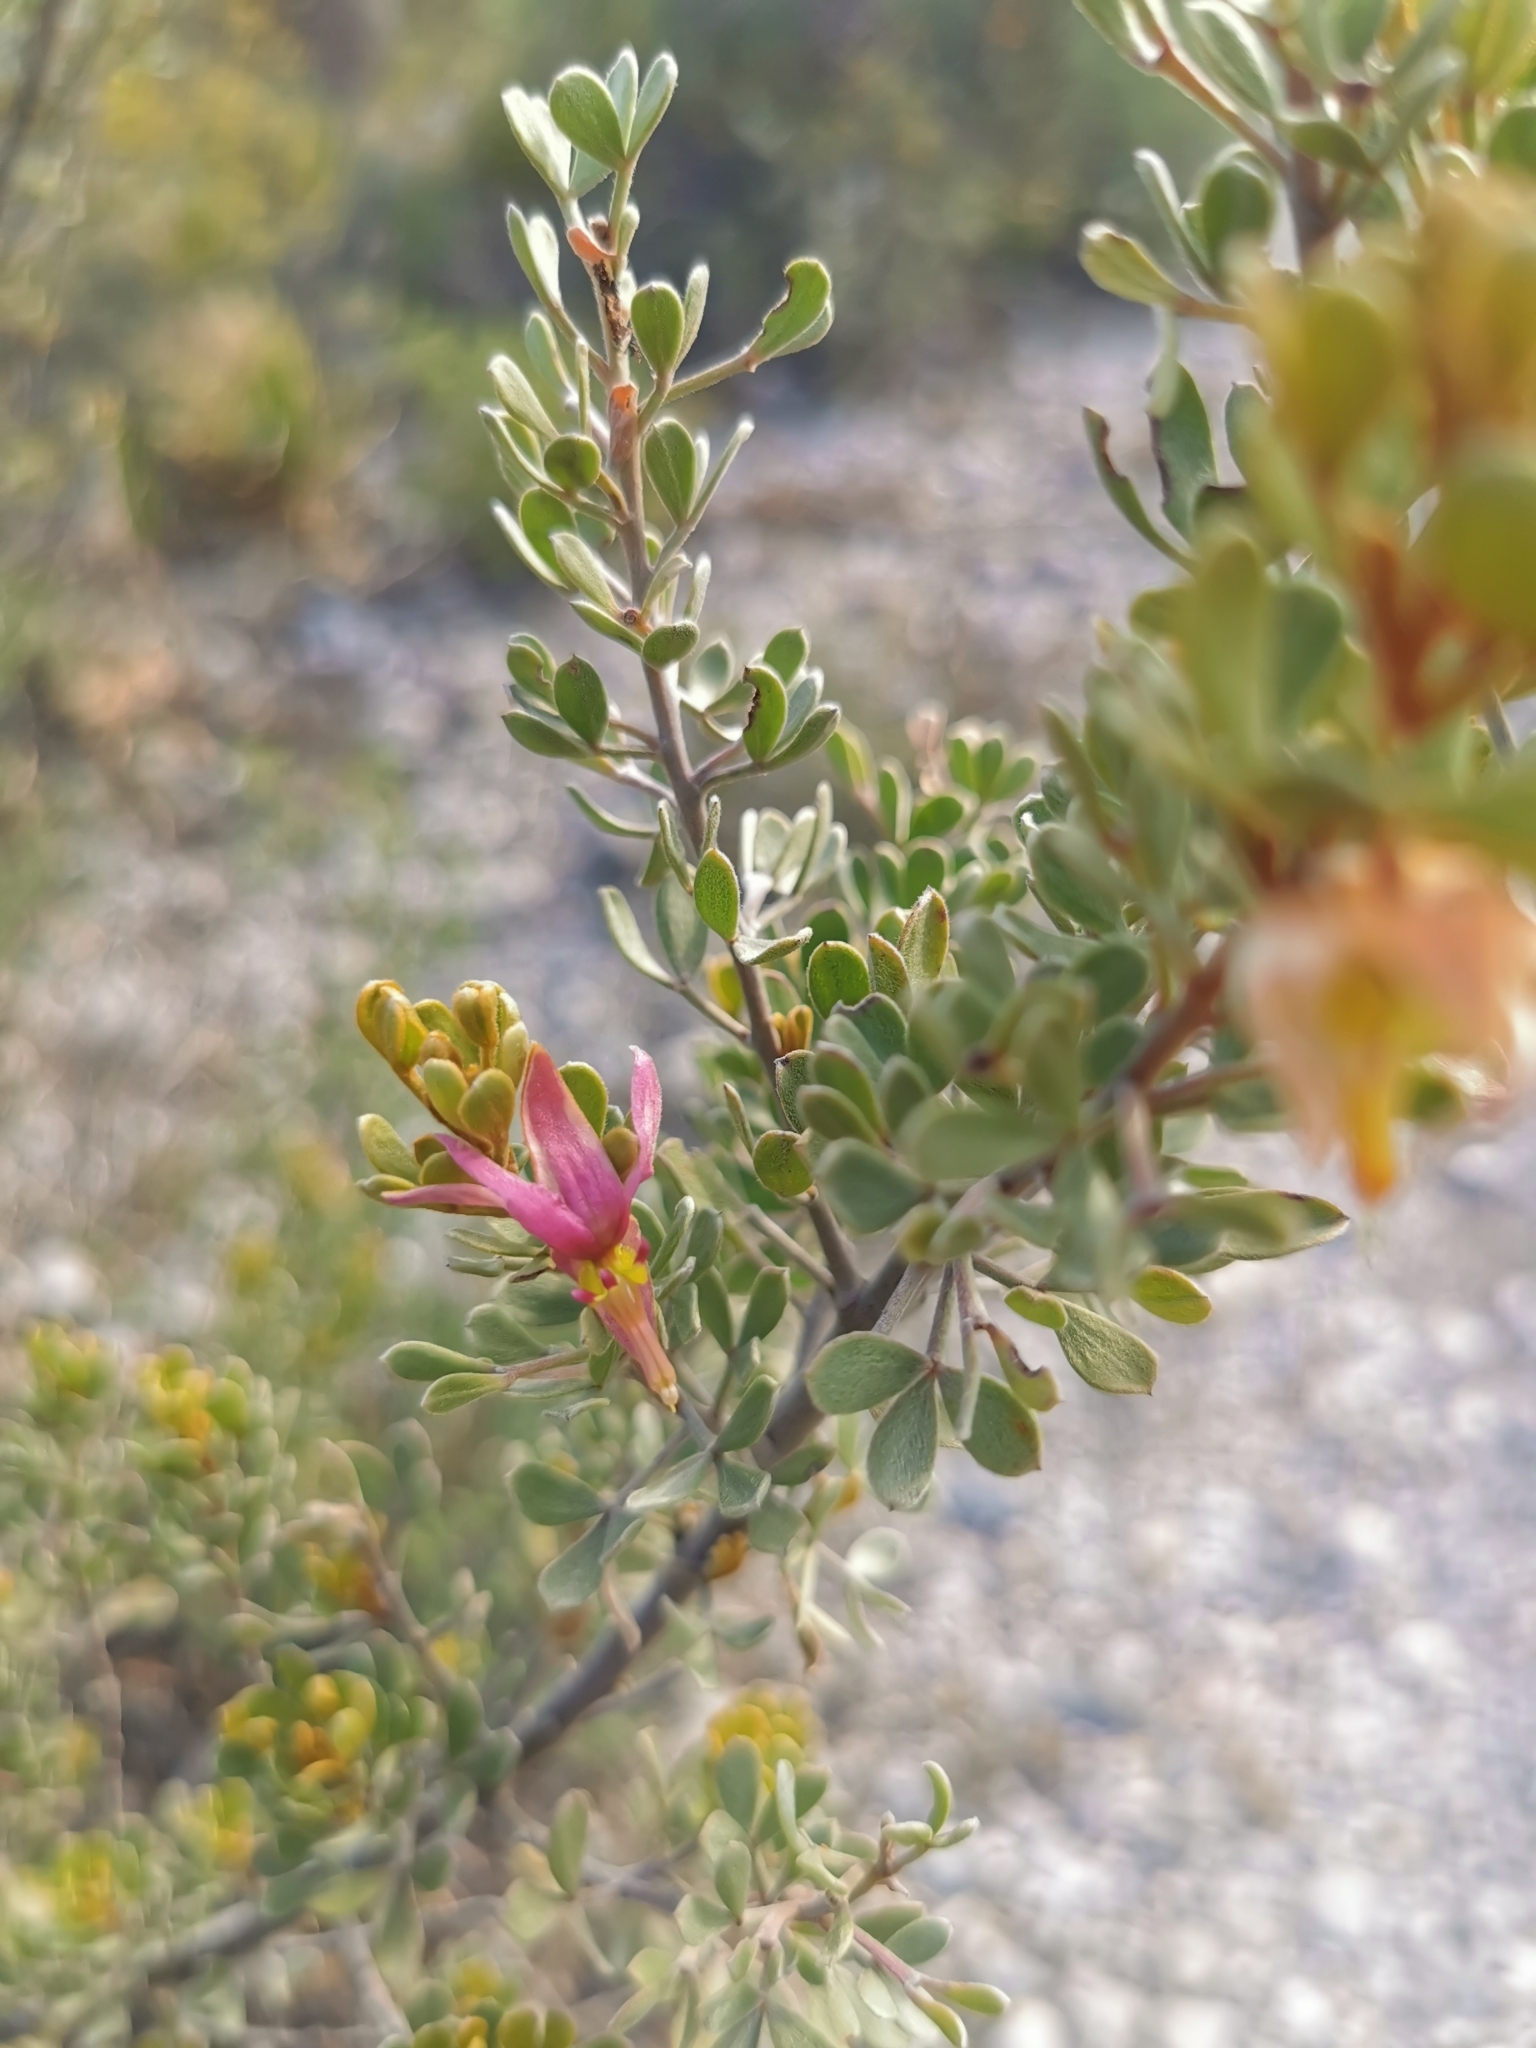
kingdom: Plantae
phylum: Tracheophyta
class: Magnoliopsida
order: Zygophyllales
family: Krameriaceae
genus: Krameria
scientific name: Krameria cytisoides
